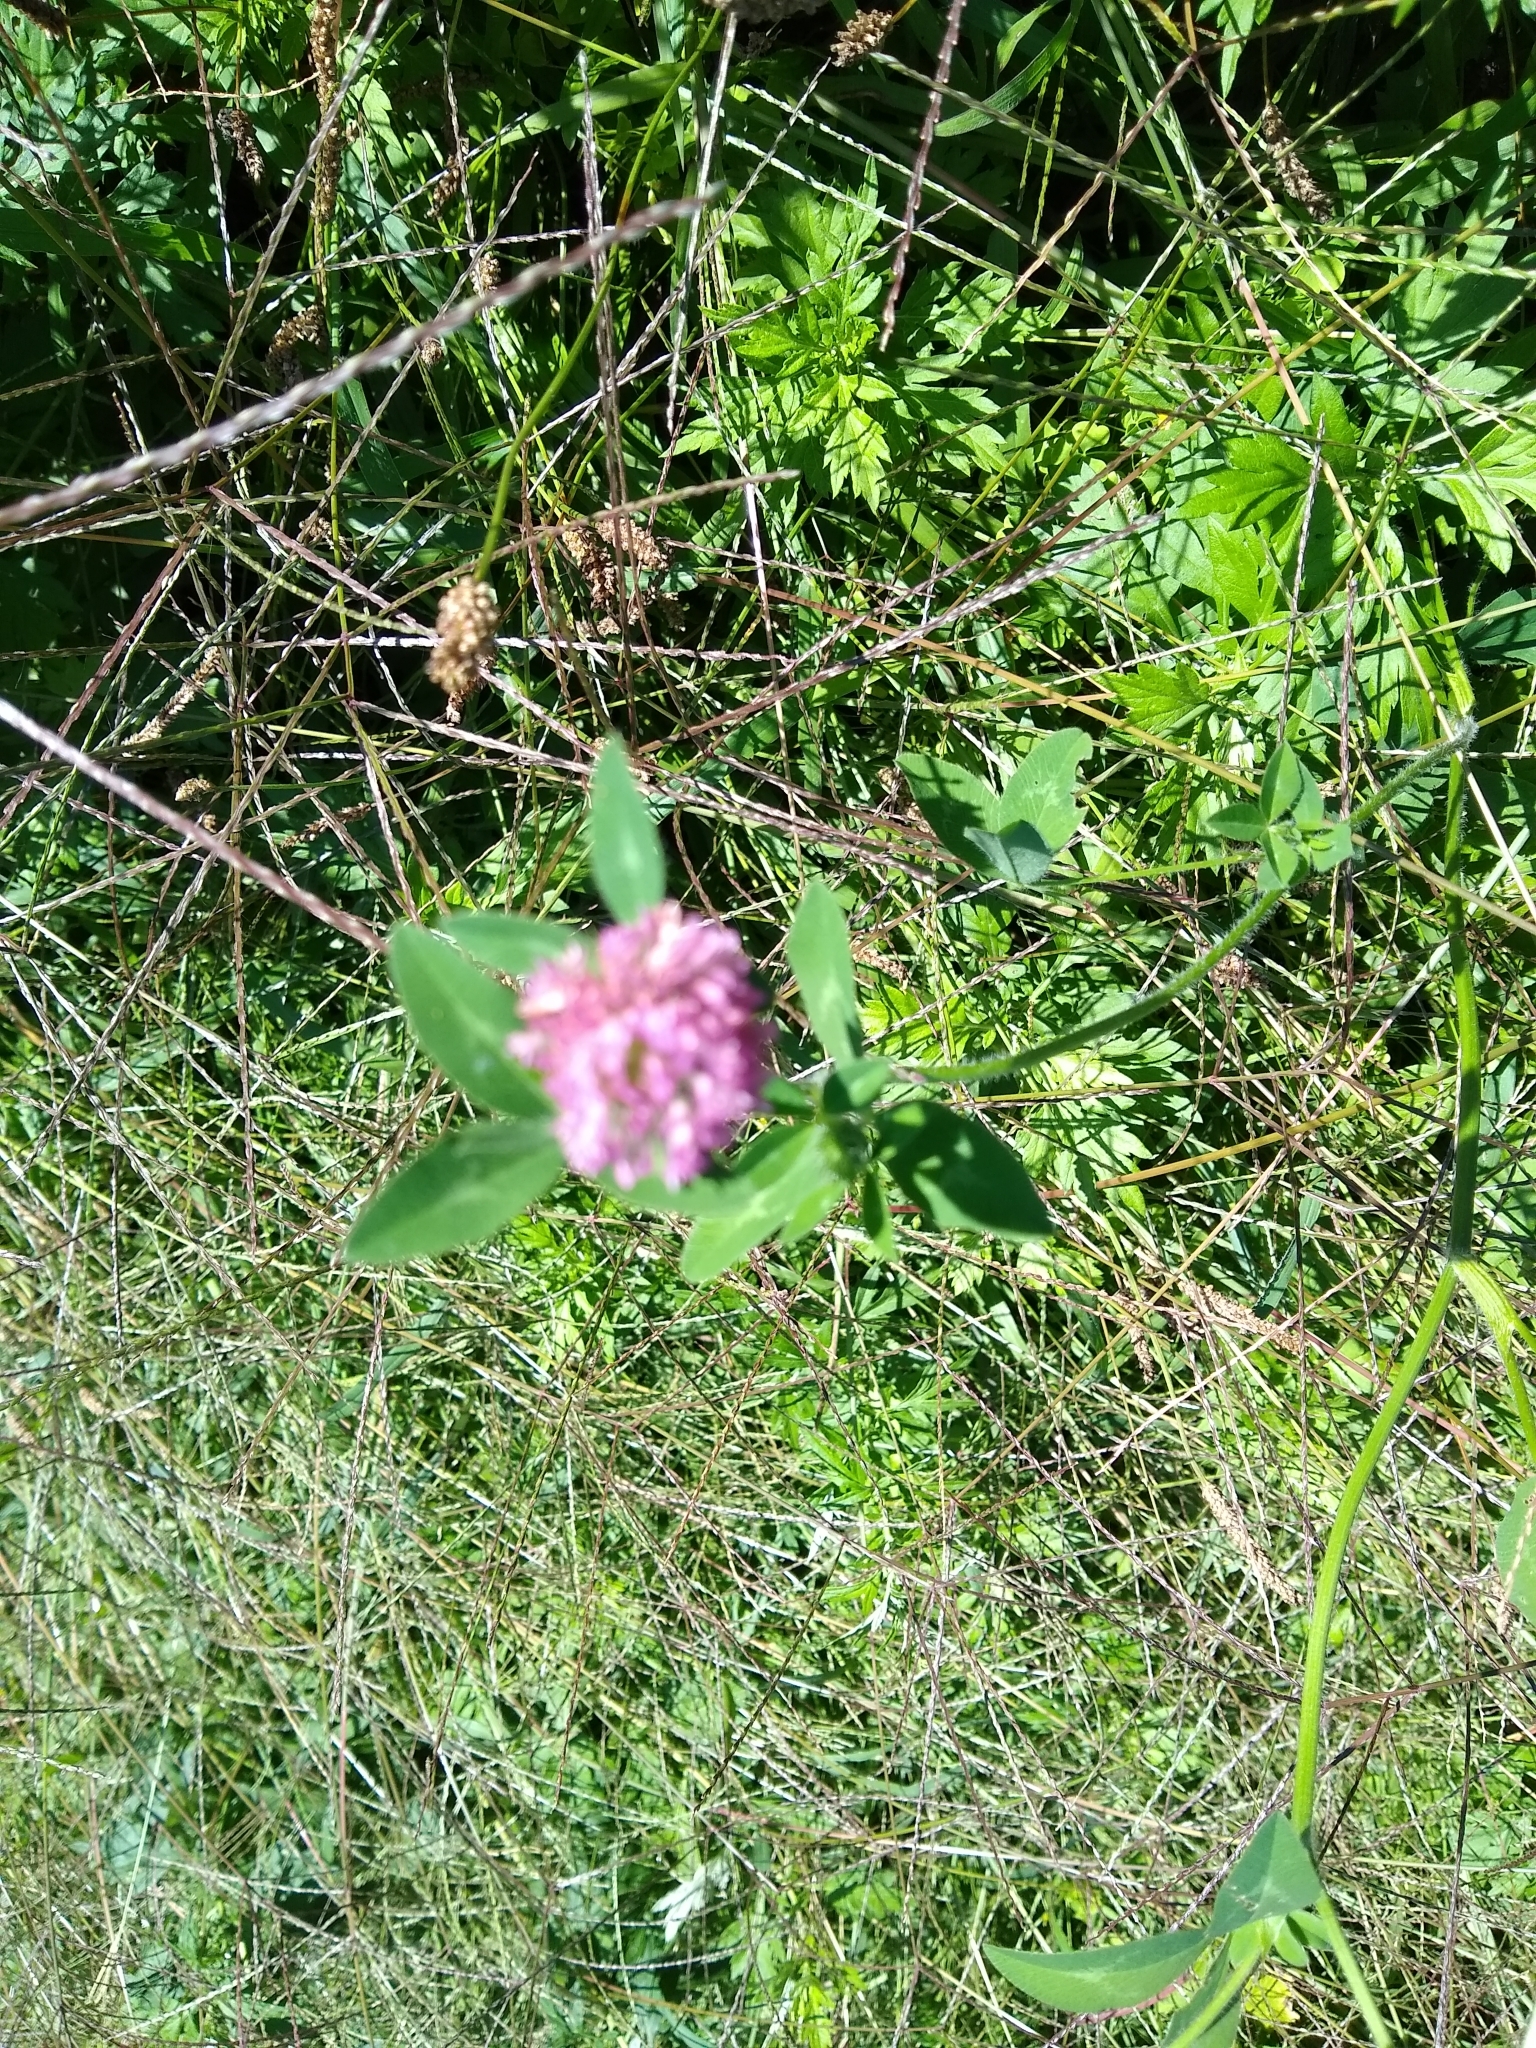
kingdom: Plantae
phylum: Tracheophyta
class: Magnoliopsida
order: Fabales
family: Fabaceae
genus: Trifolium
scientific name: Trifolium pratense
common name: Red clover
